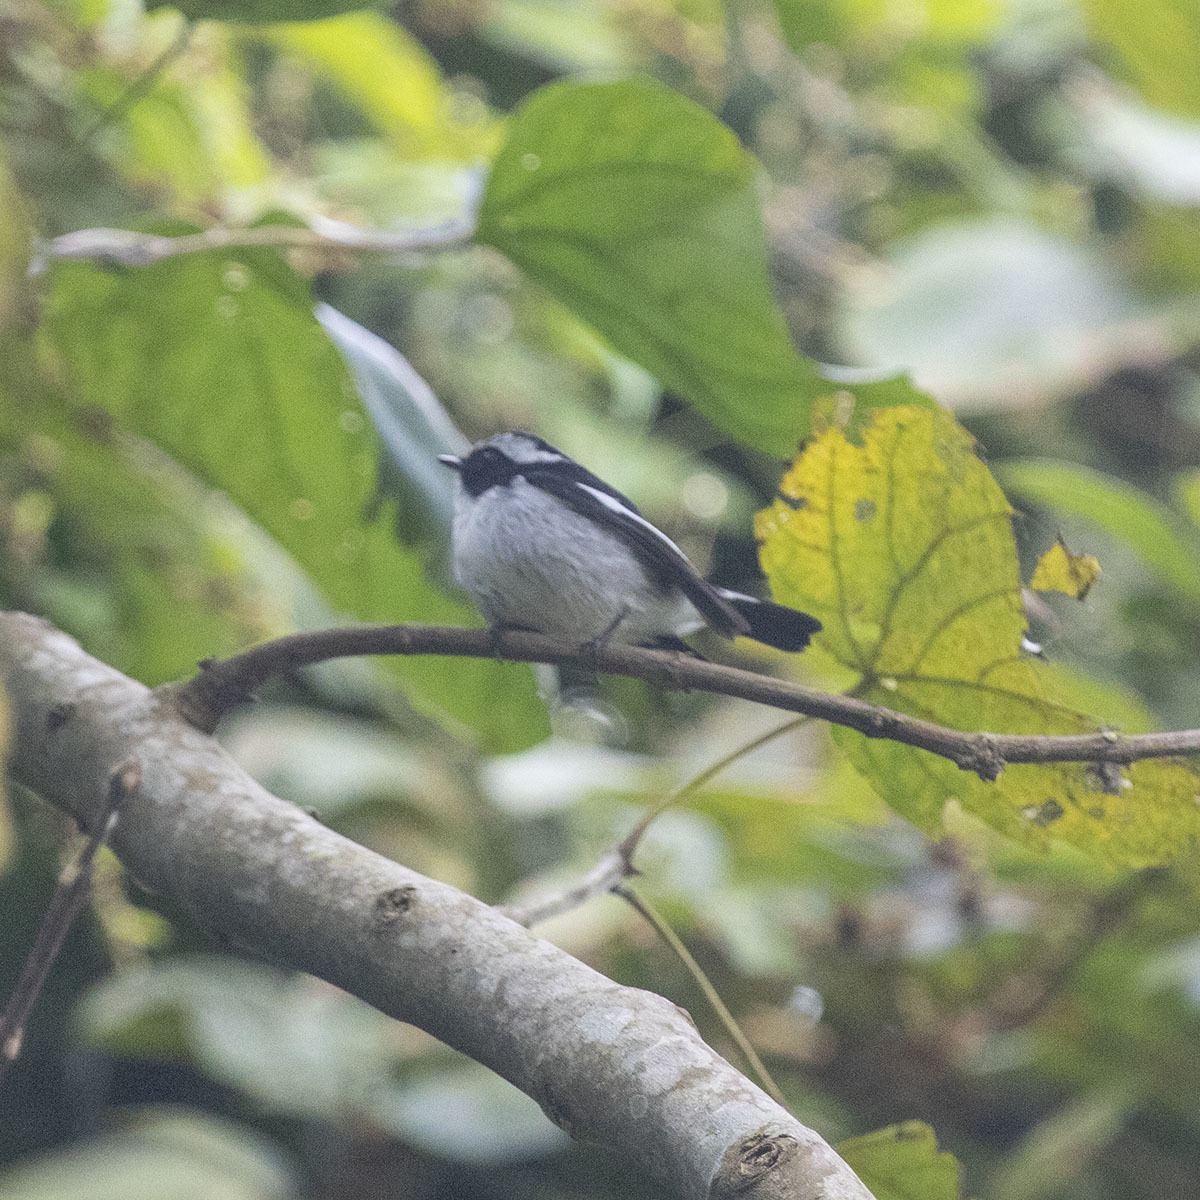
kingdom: Animalia
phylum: Chordata
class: Aves
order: Passeriformes
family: Muscicapidae
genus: Ficedula
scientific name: Ficedula westermanni
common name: Little pied flycatcher
